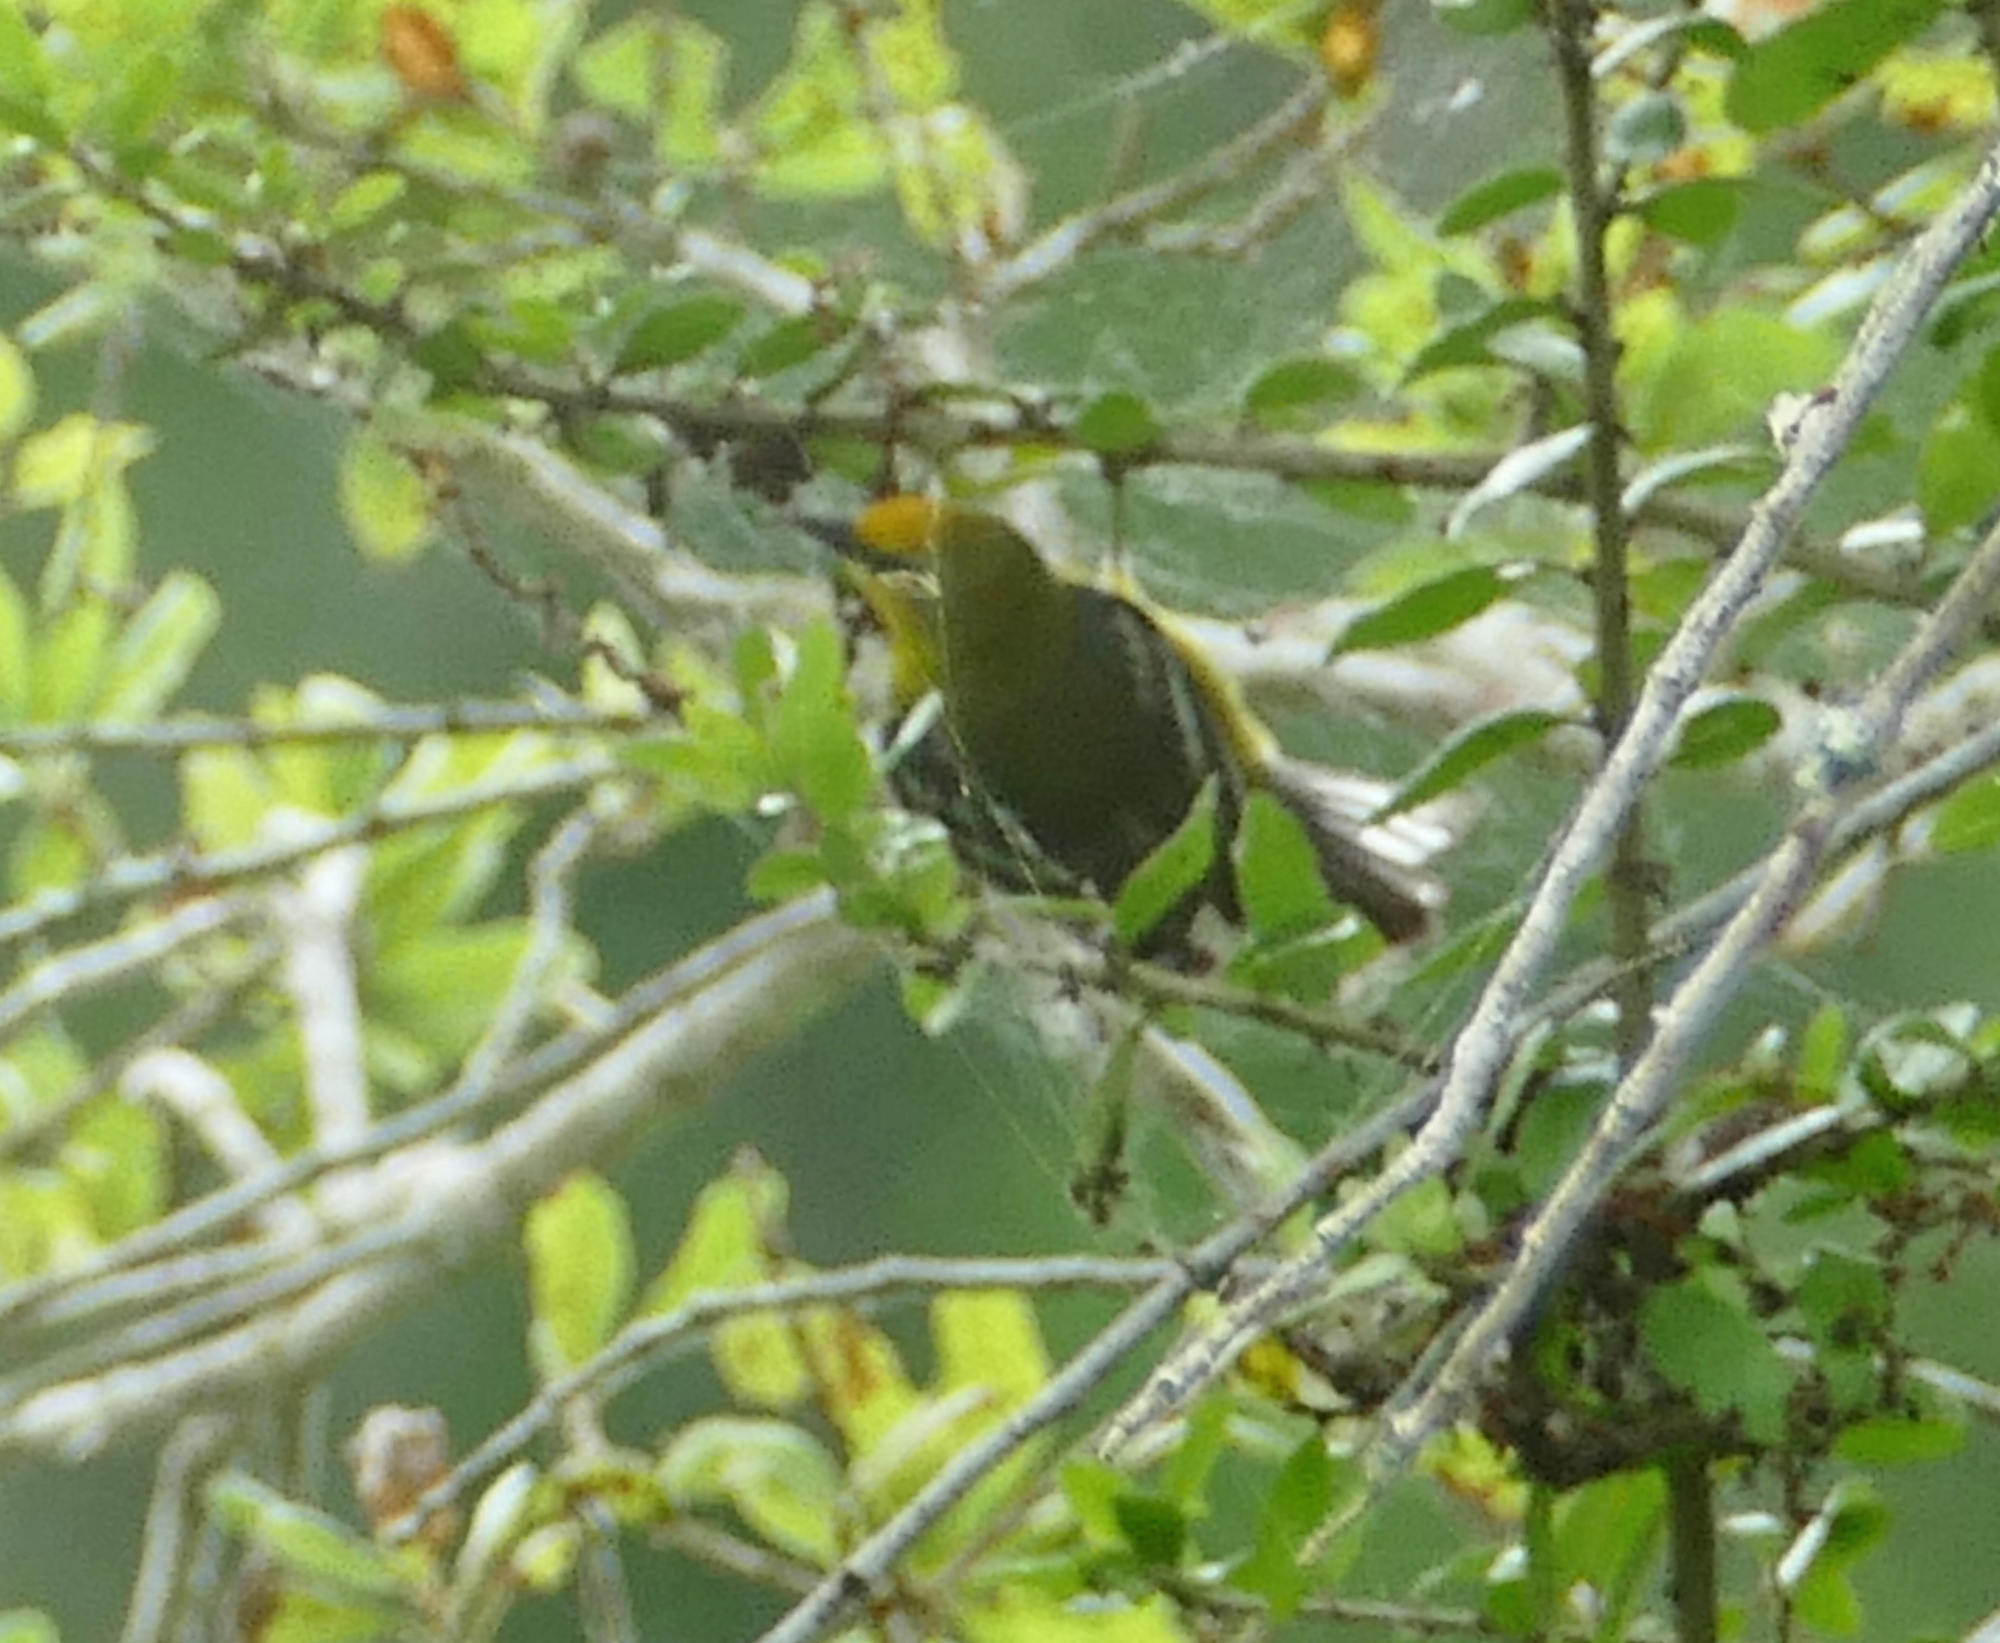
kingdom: Animalia
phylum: Chordata
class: Aves
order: Passeriformes
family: Parulidae
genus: Vermivora
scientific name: Vermivora cyanoptera
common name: Blue-winged warbler
